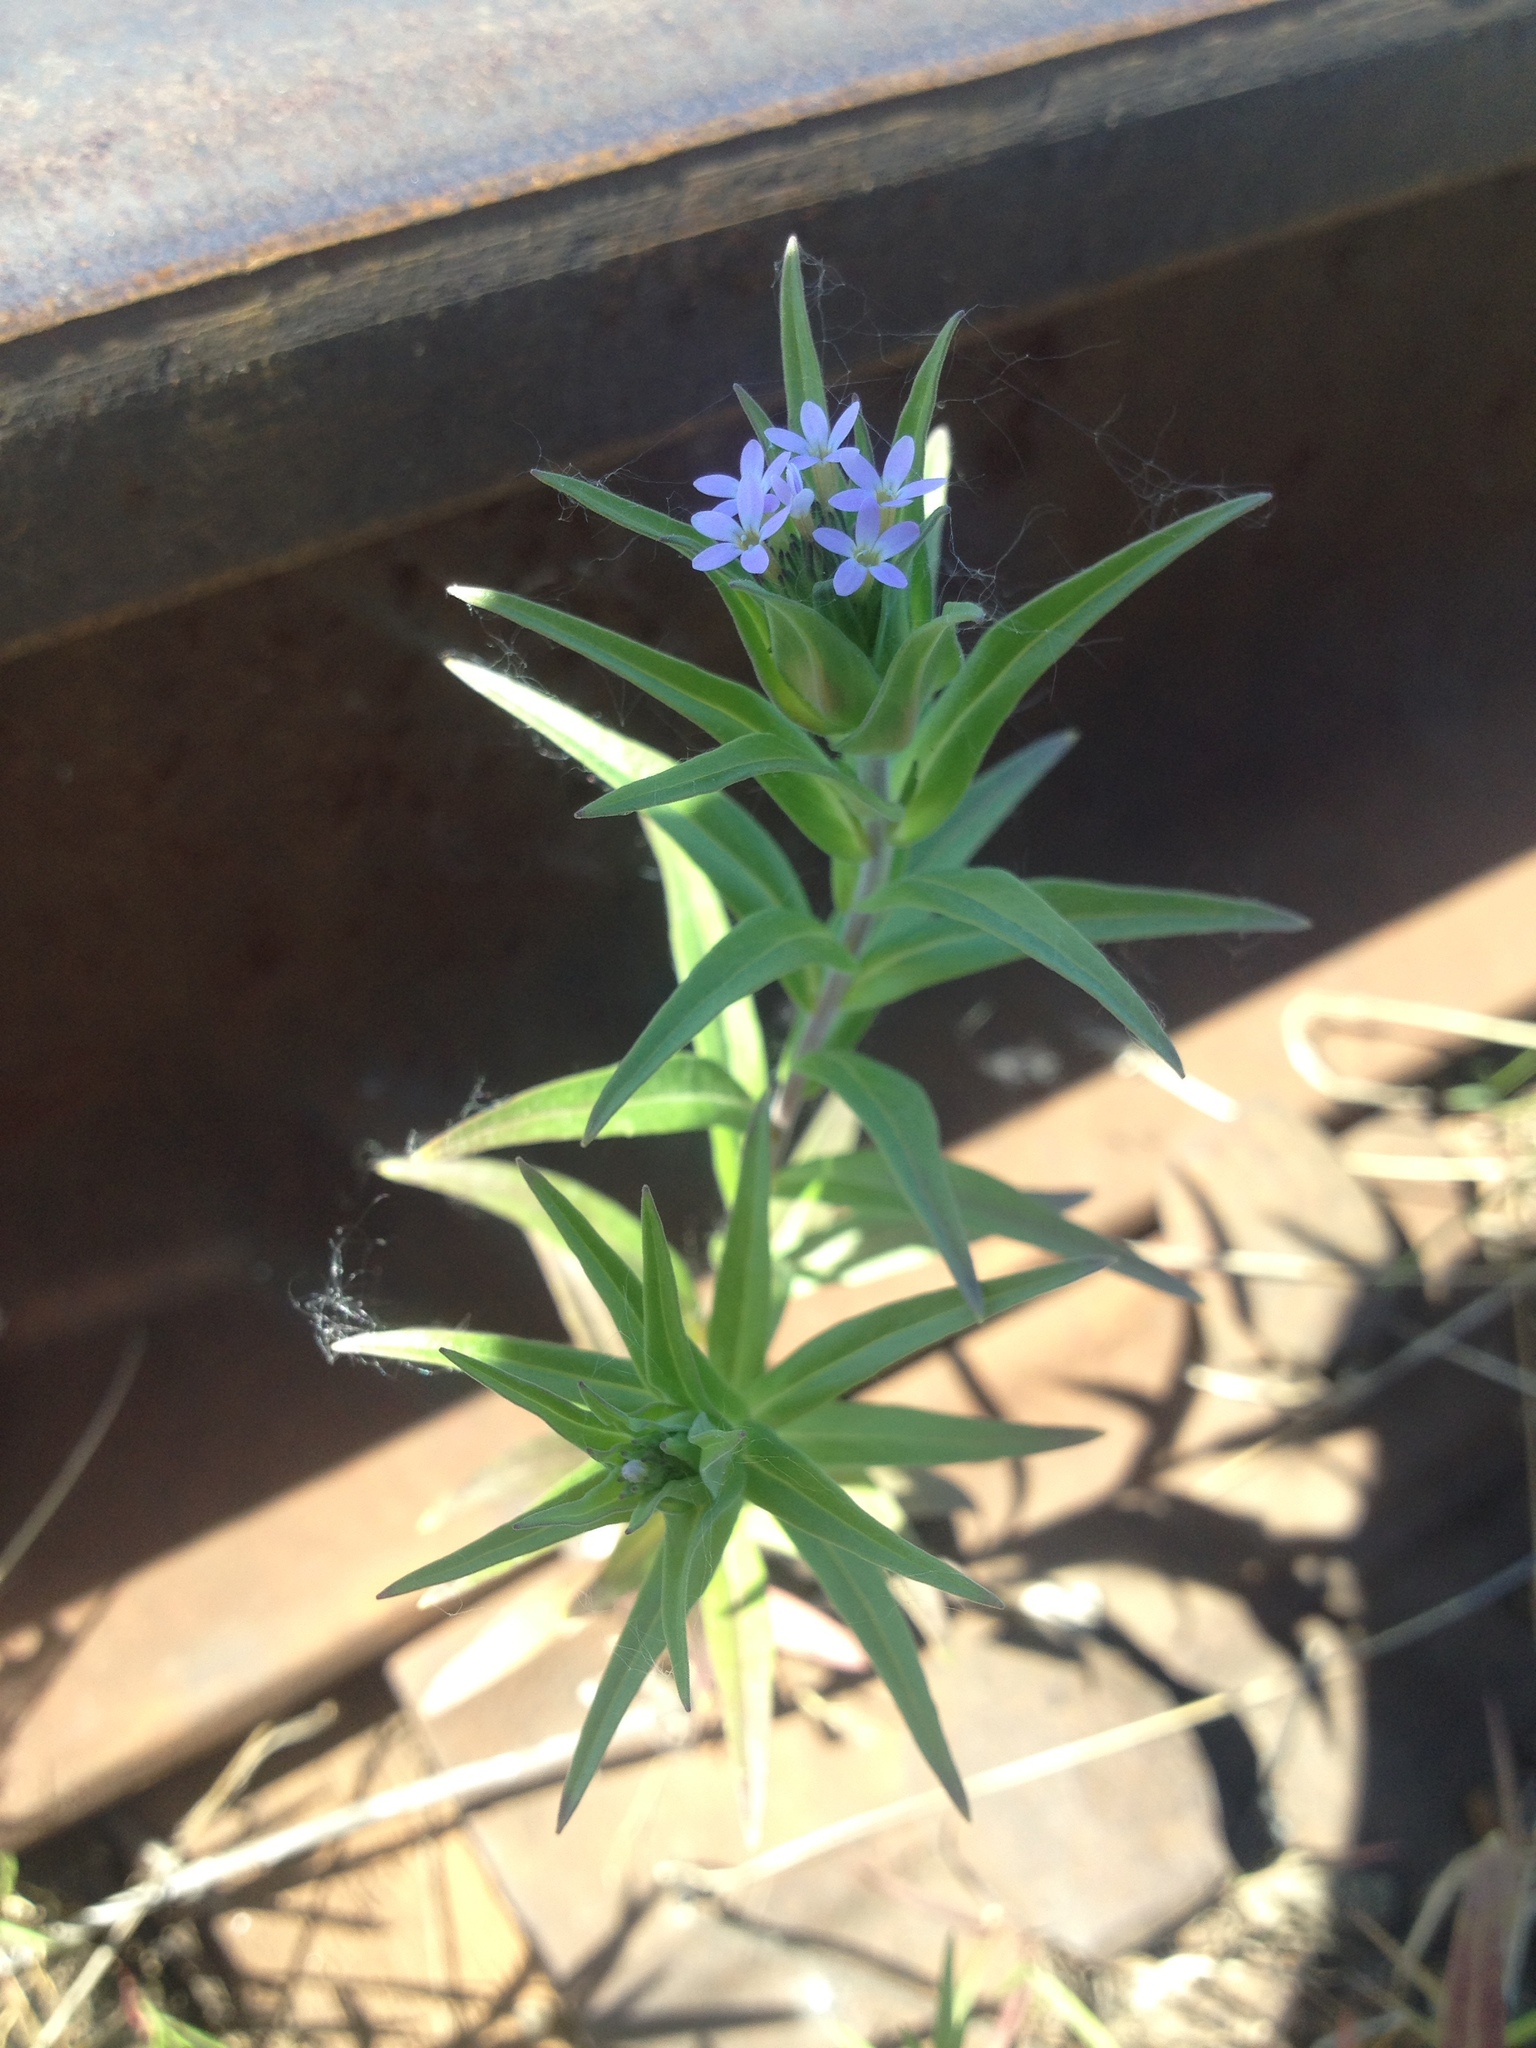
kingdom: Plantae
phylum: Tracheophyta
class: Magnoliopsida
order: Ericales
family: Polemoniaceae
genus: Collomia
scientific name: Collomia linearis
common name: Tiny trumpet
